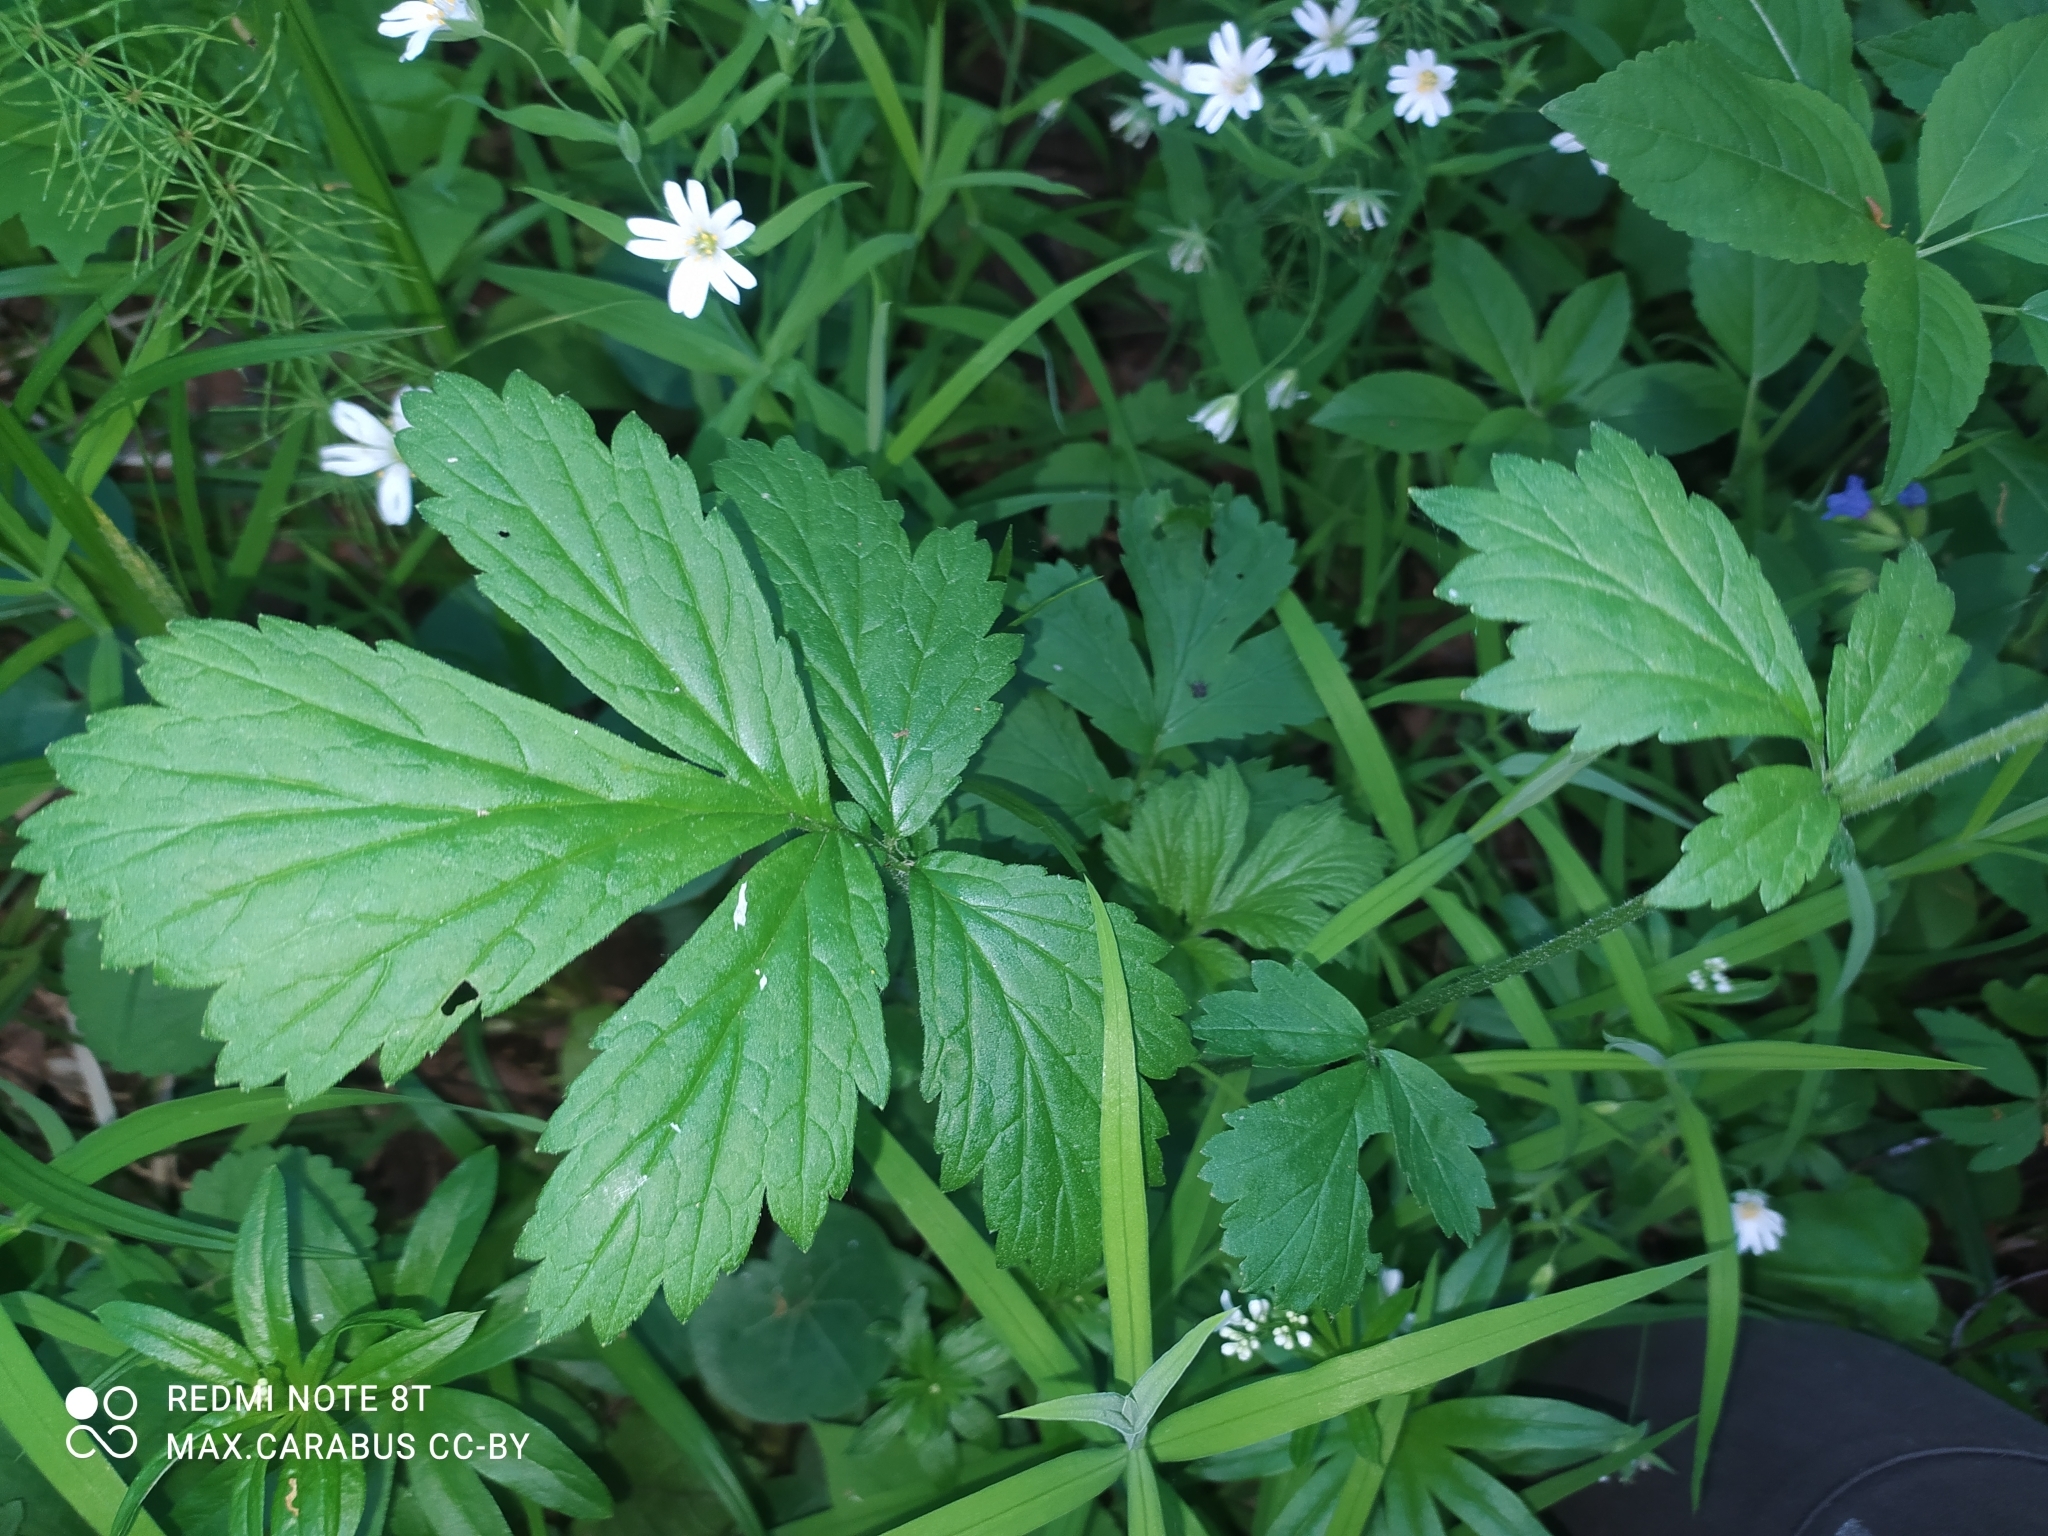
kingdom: Plantae
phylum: Tracheophyta
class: Magnoliopsida
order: Rosales
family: Rosaceae
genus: Geum
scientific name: Geum rivale
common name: Water avens
